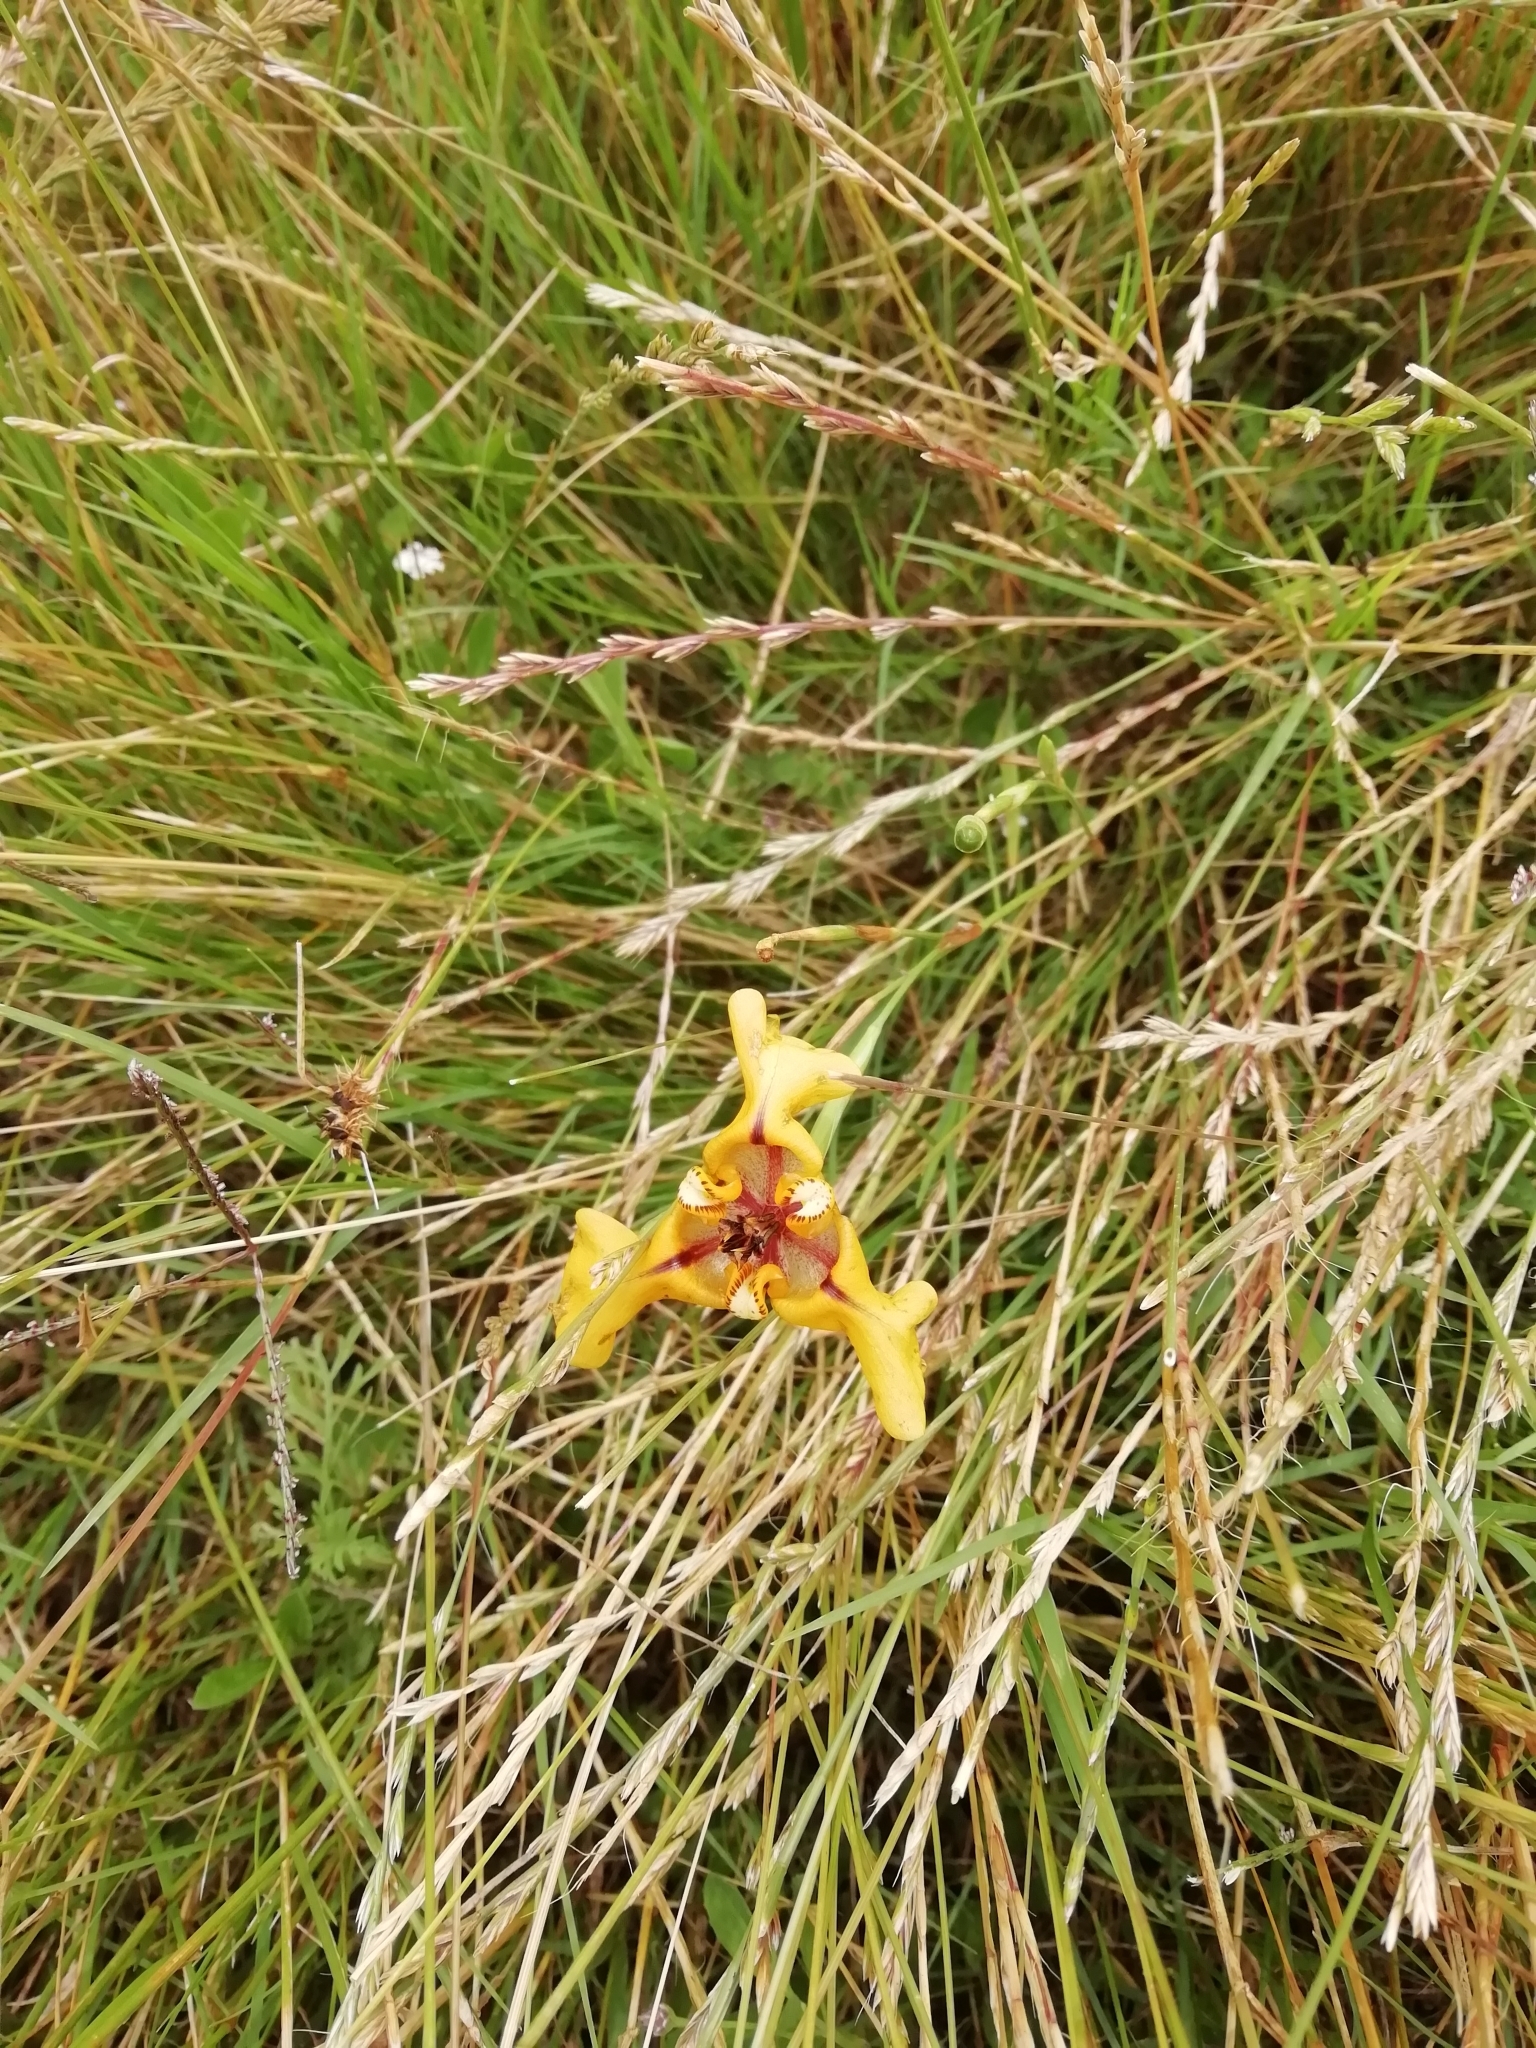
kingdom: Plantae
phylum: Tracheophyta
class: Liliopsida
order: Asparagales
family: Iridaceae
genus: Cypella
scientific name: Cypella herbertii
